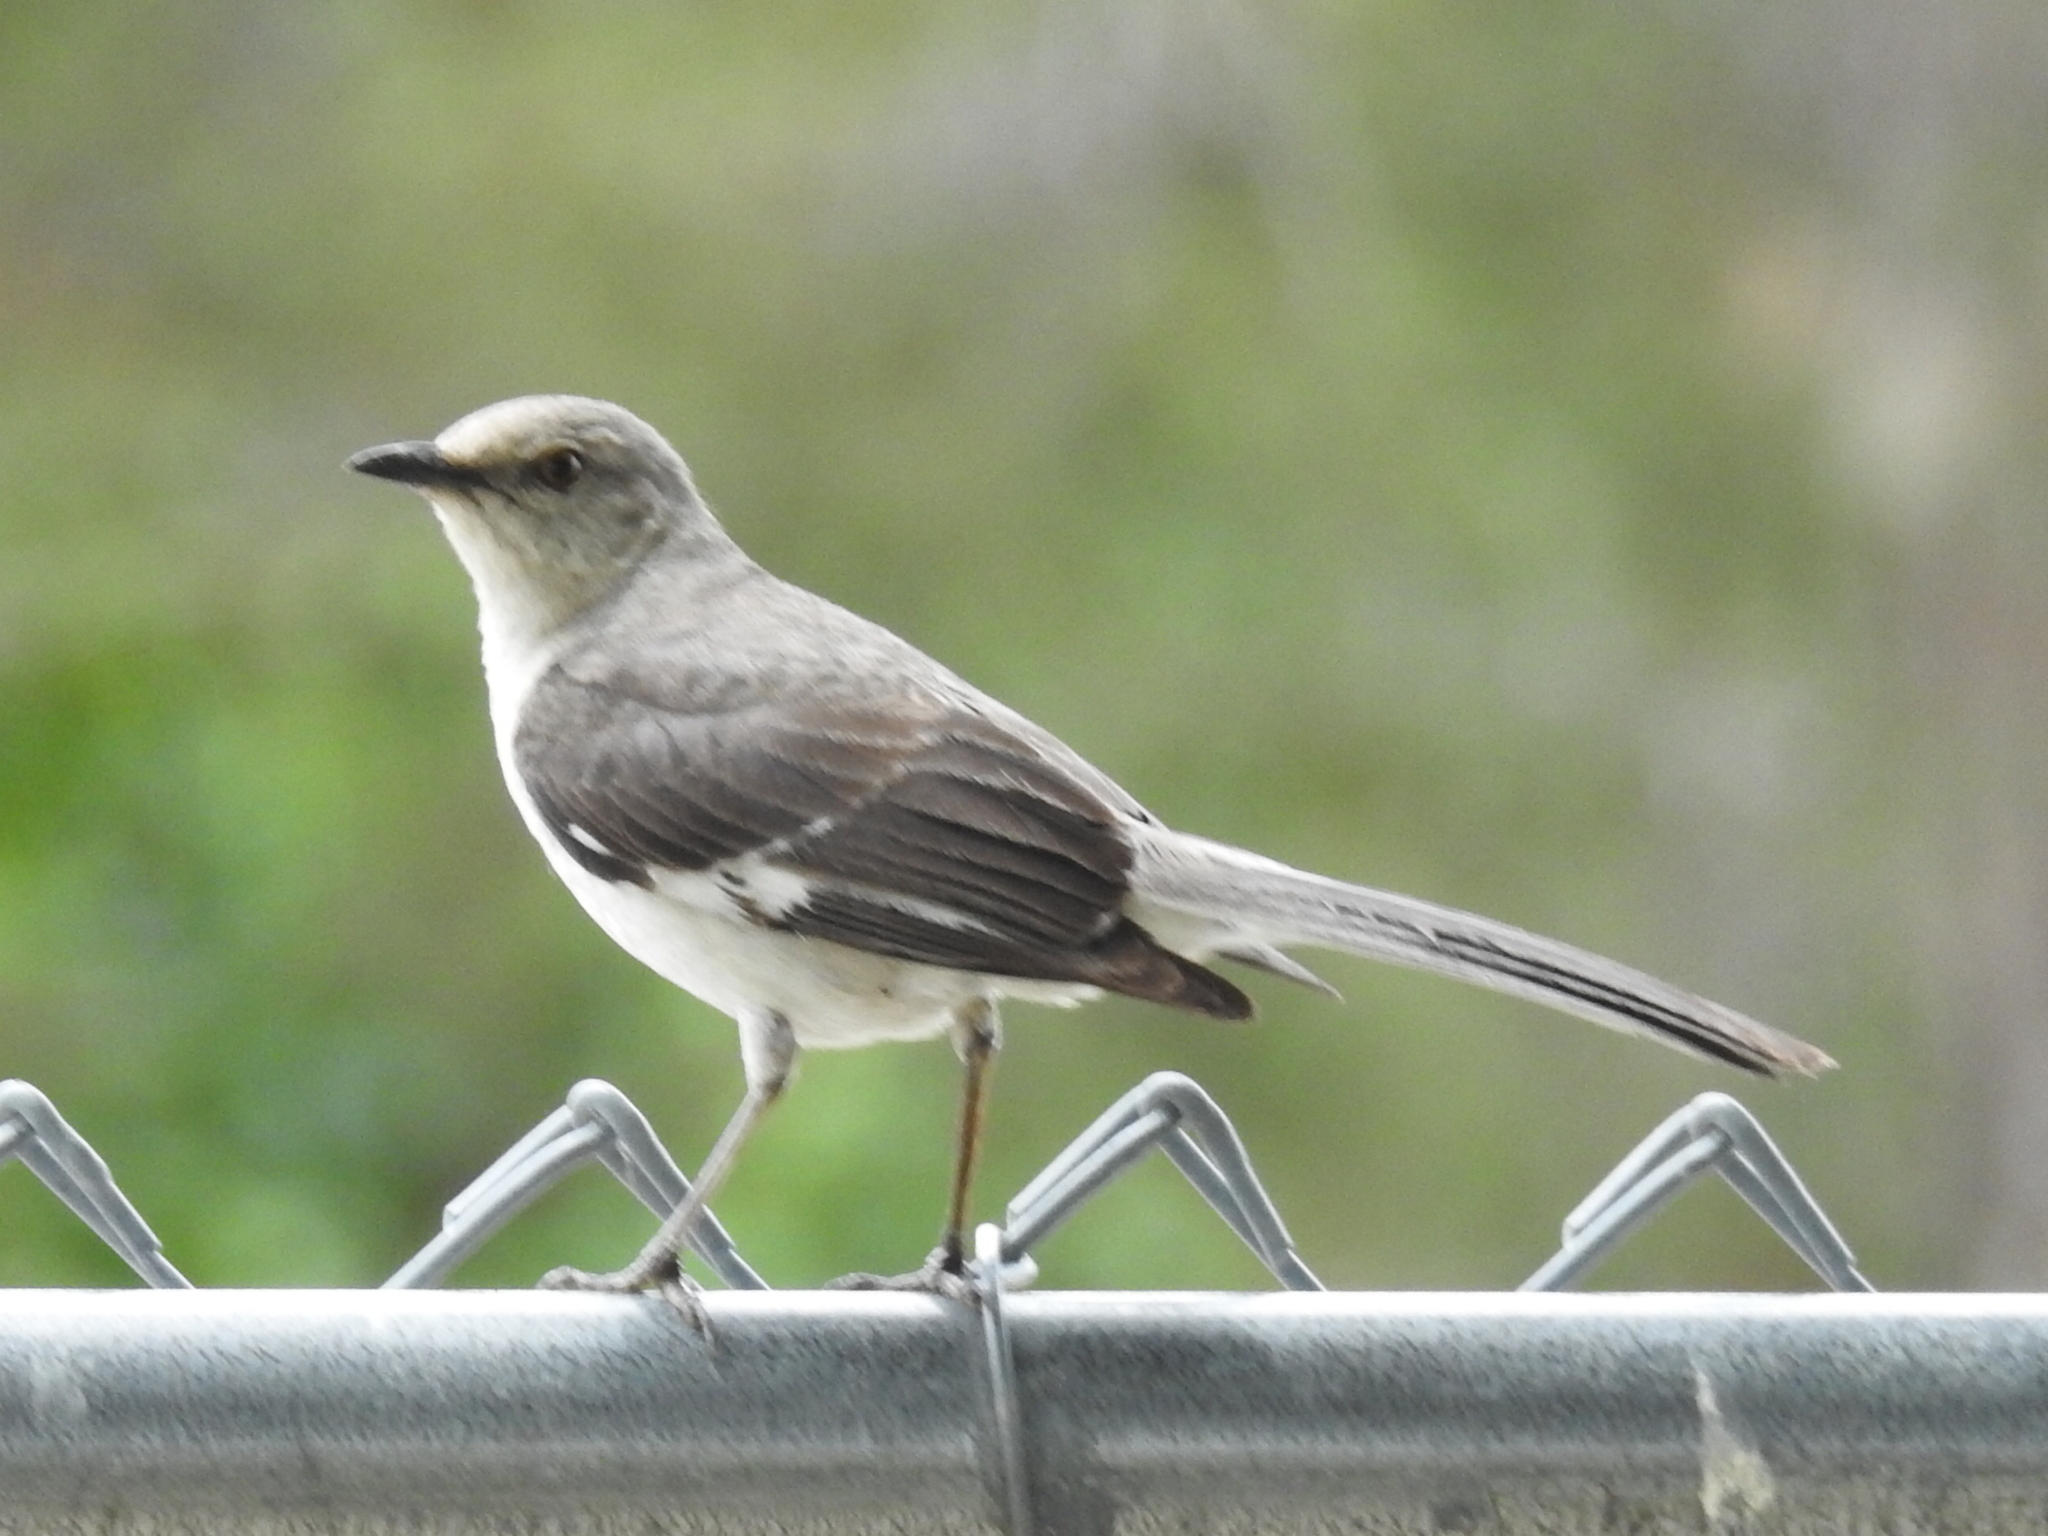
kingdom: Animalia
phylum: Chordata
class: Aves
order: Passeriformes
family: Mimidae
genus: Mimus
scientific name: Mimus polyglottos
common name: Northern mockingbird
